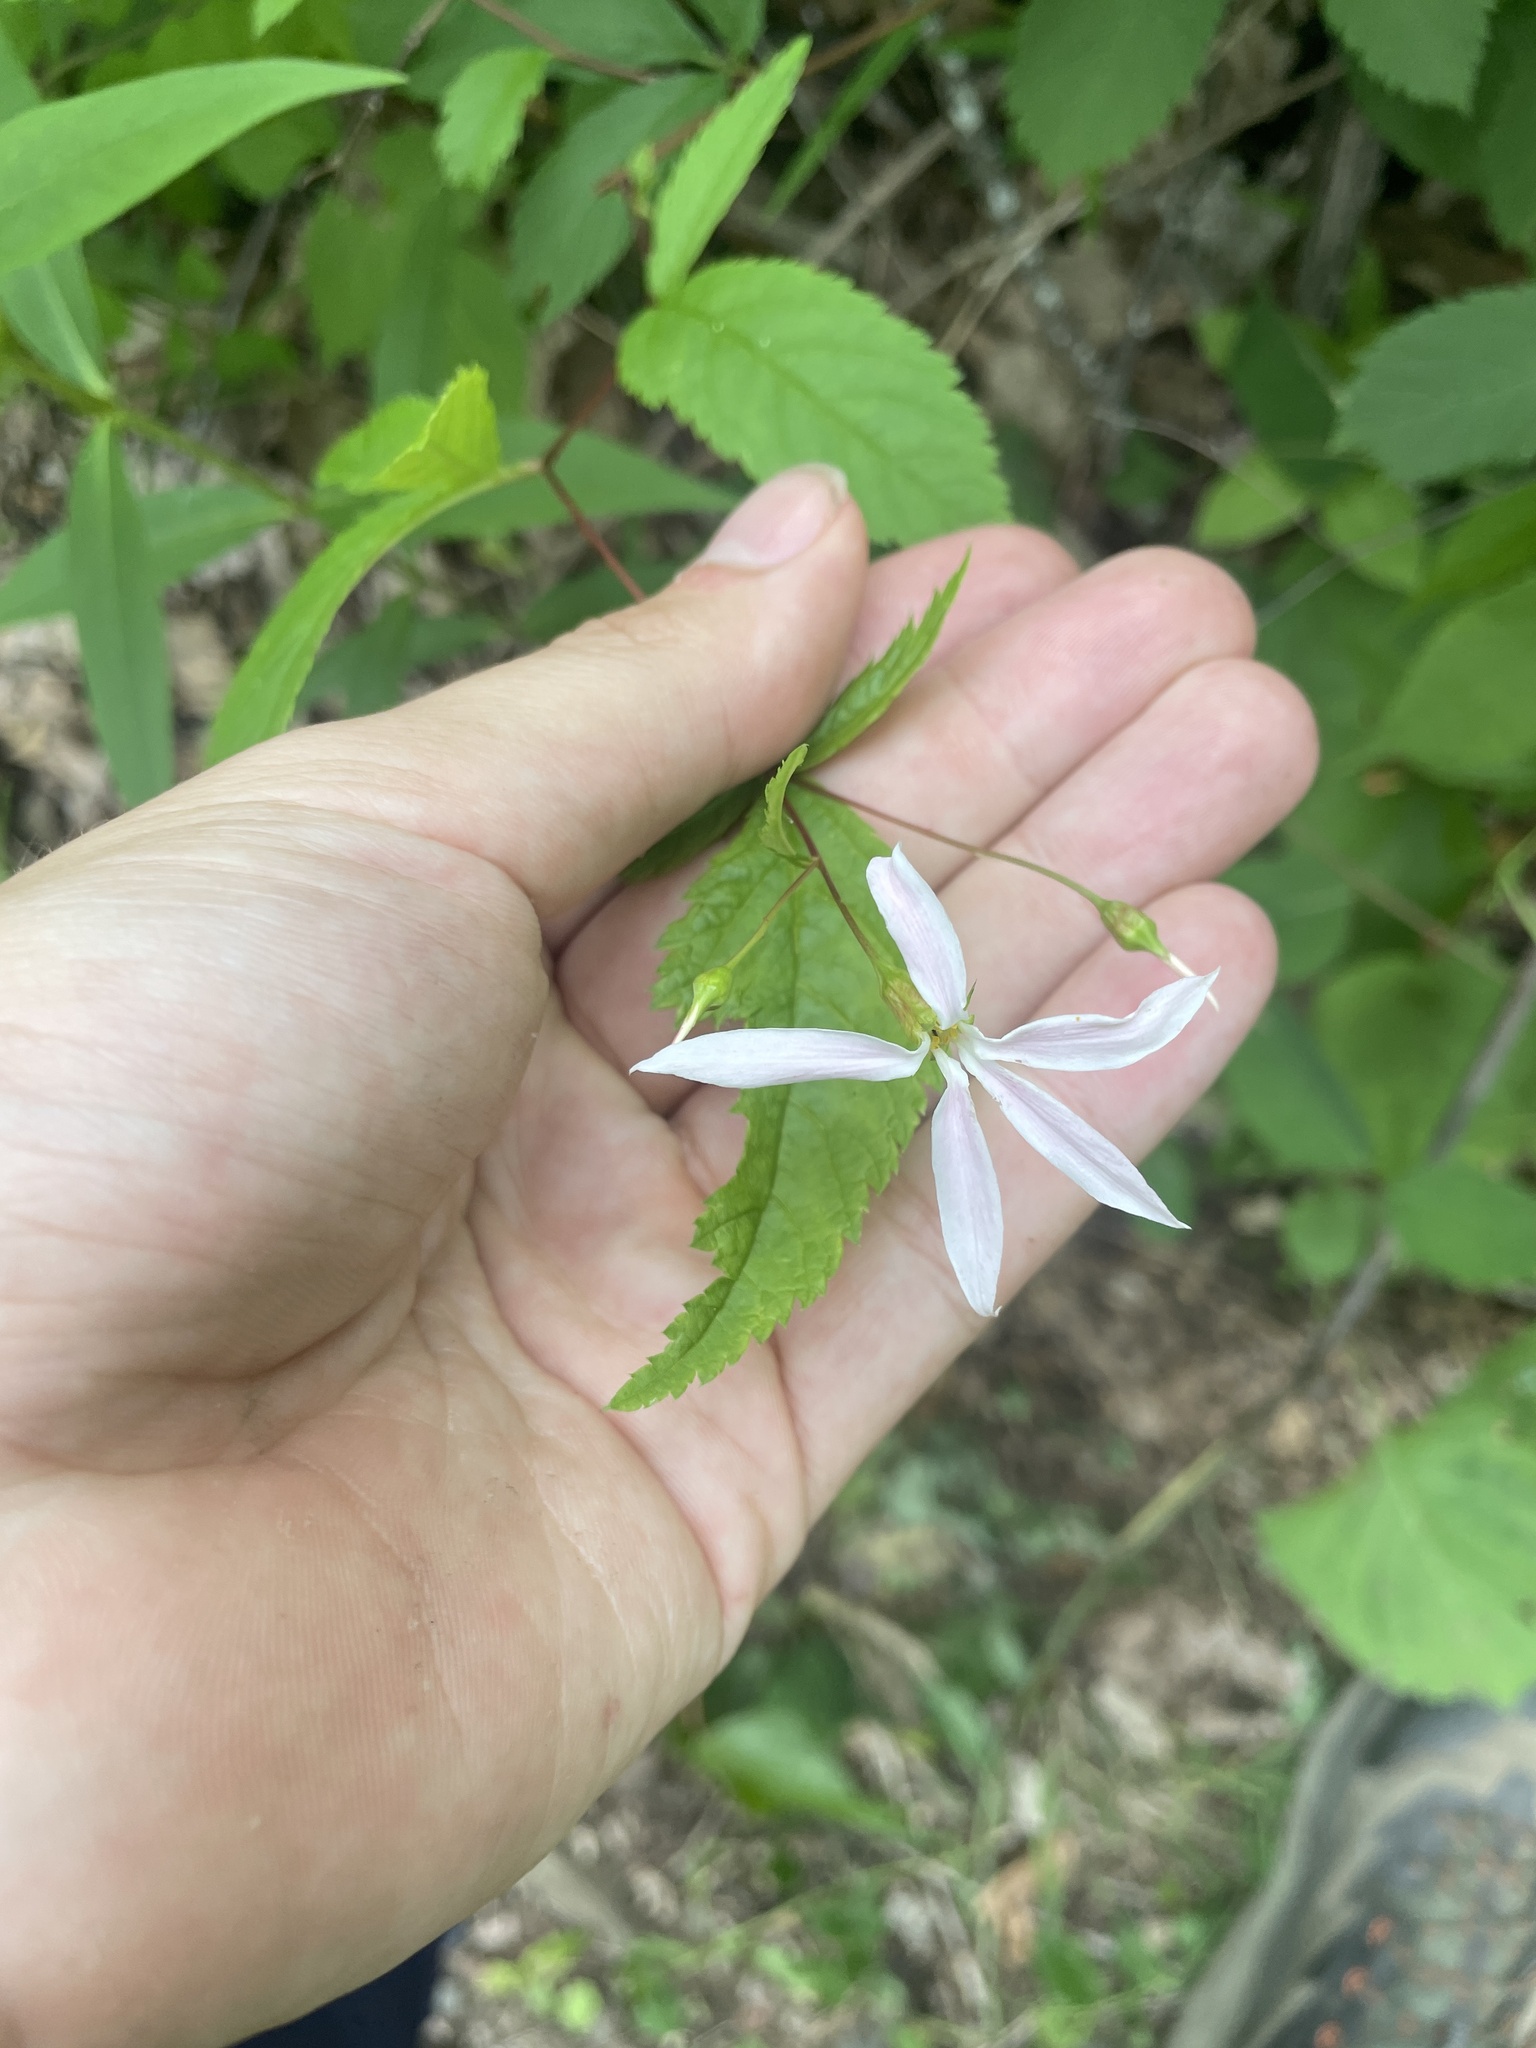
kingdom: Plantae
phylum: Tracheophyta
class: Magnoliopsida
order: Rosales
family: Rosaceae
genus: Gillenia
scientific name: Gillenia trifoliata
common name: Bowman's-root
